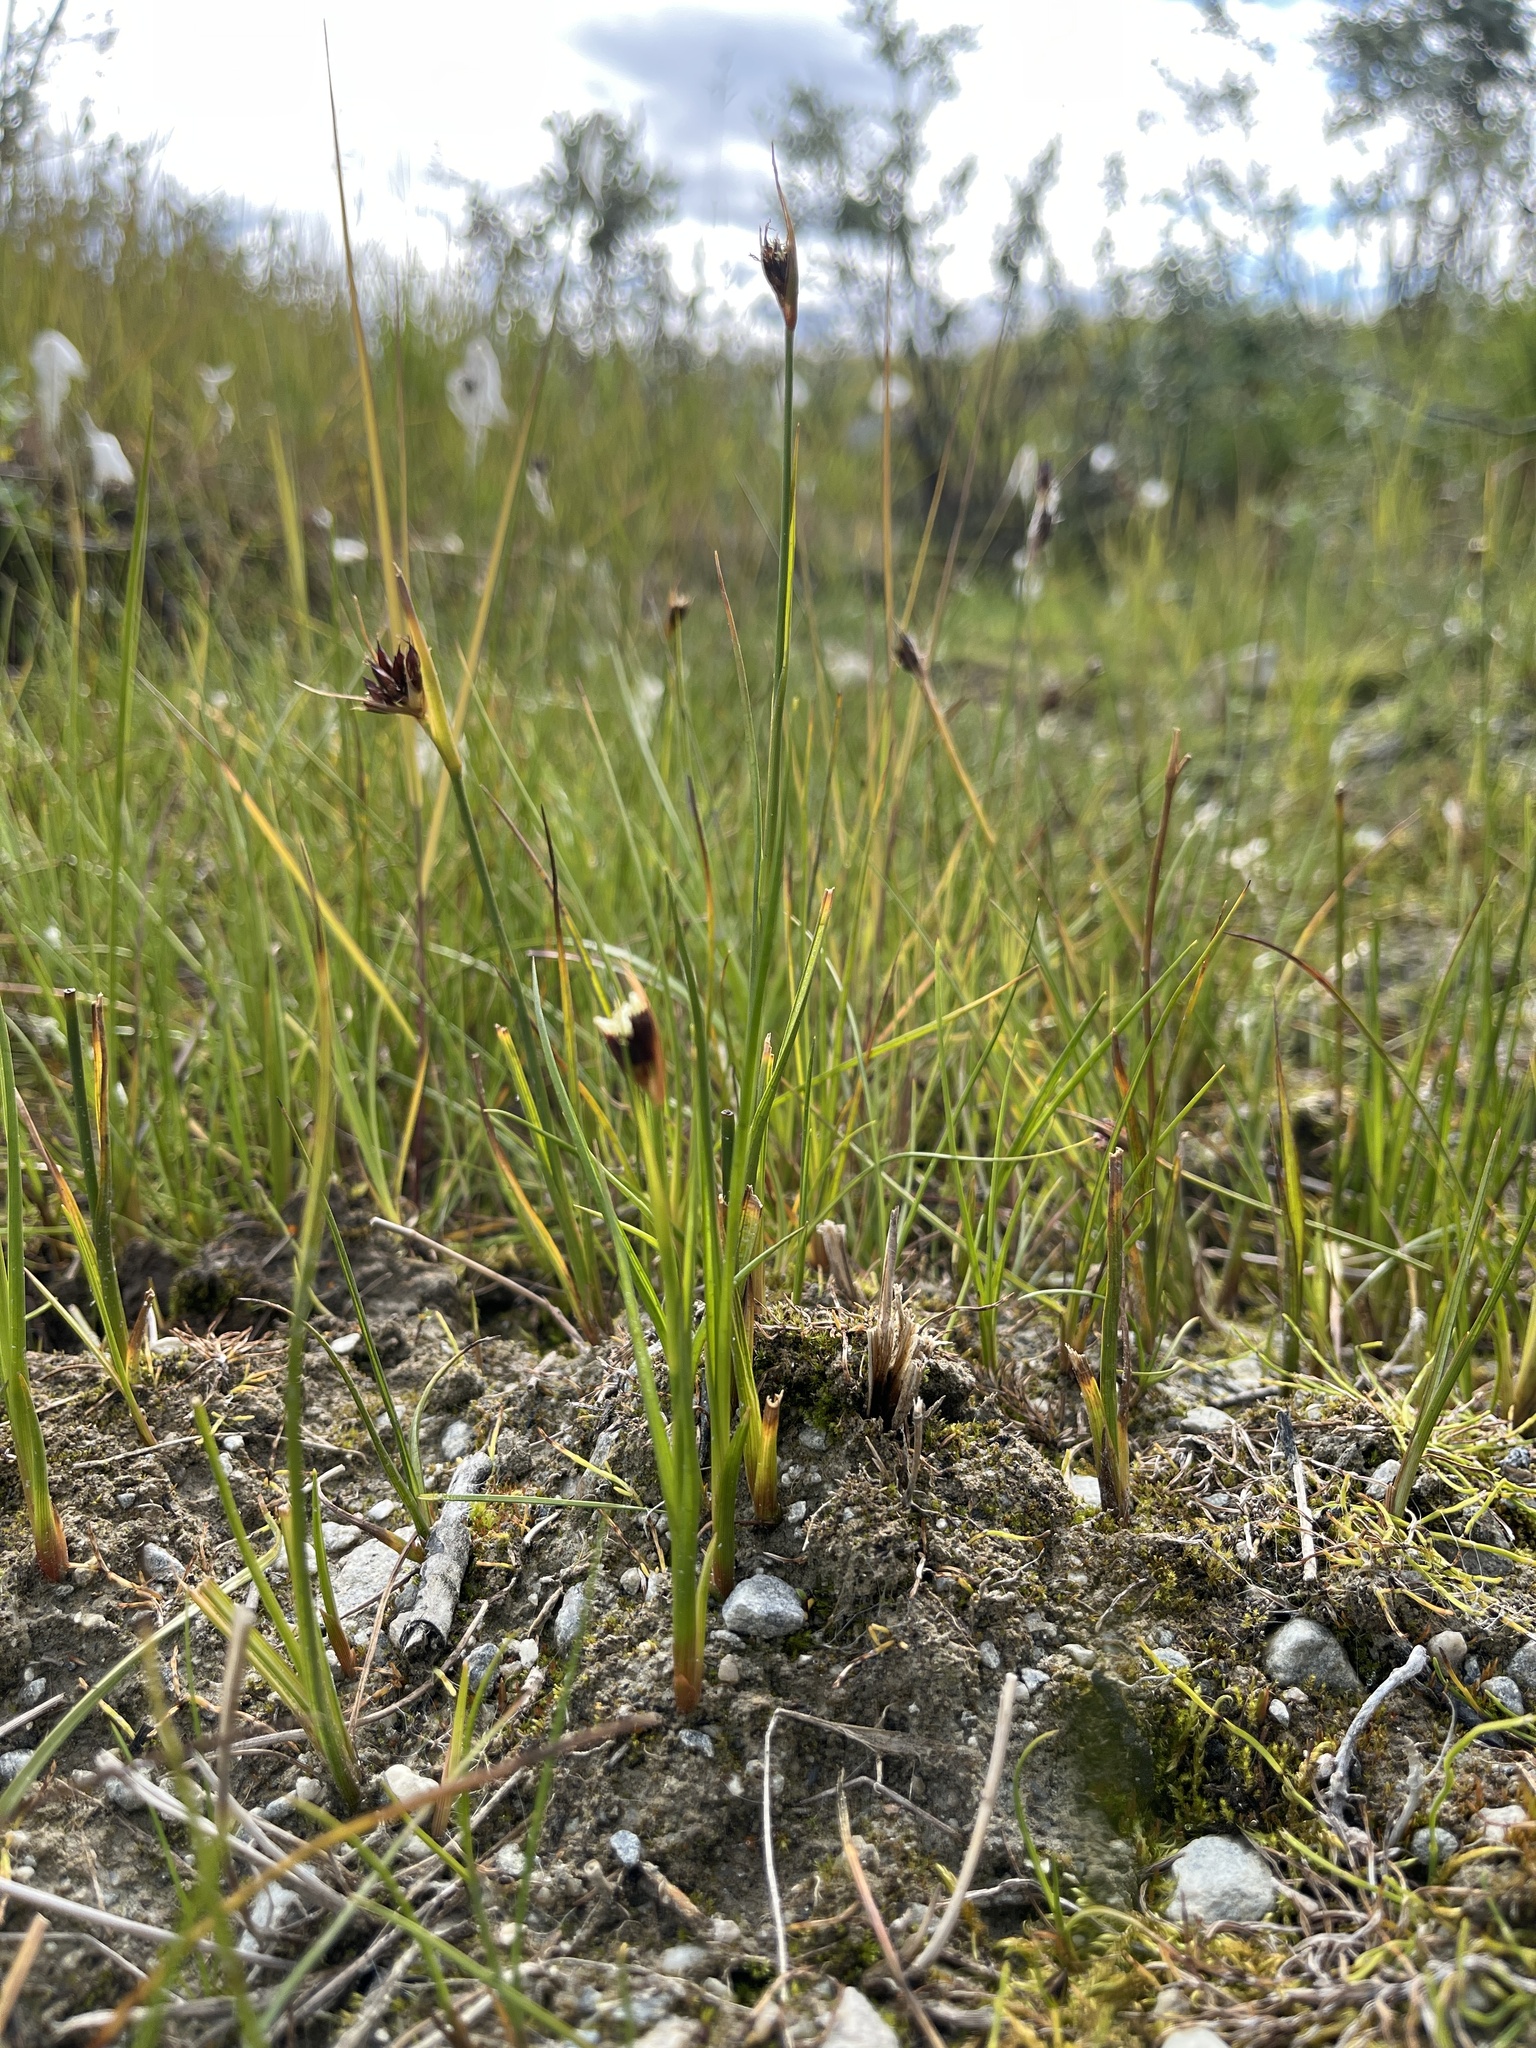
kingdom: Plantae
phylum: Tracheophyta
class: Liliopsida
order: Poales
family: Juncaceae
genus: Juncus
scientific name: Juncus arcticus
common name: Arctic rush
